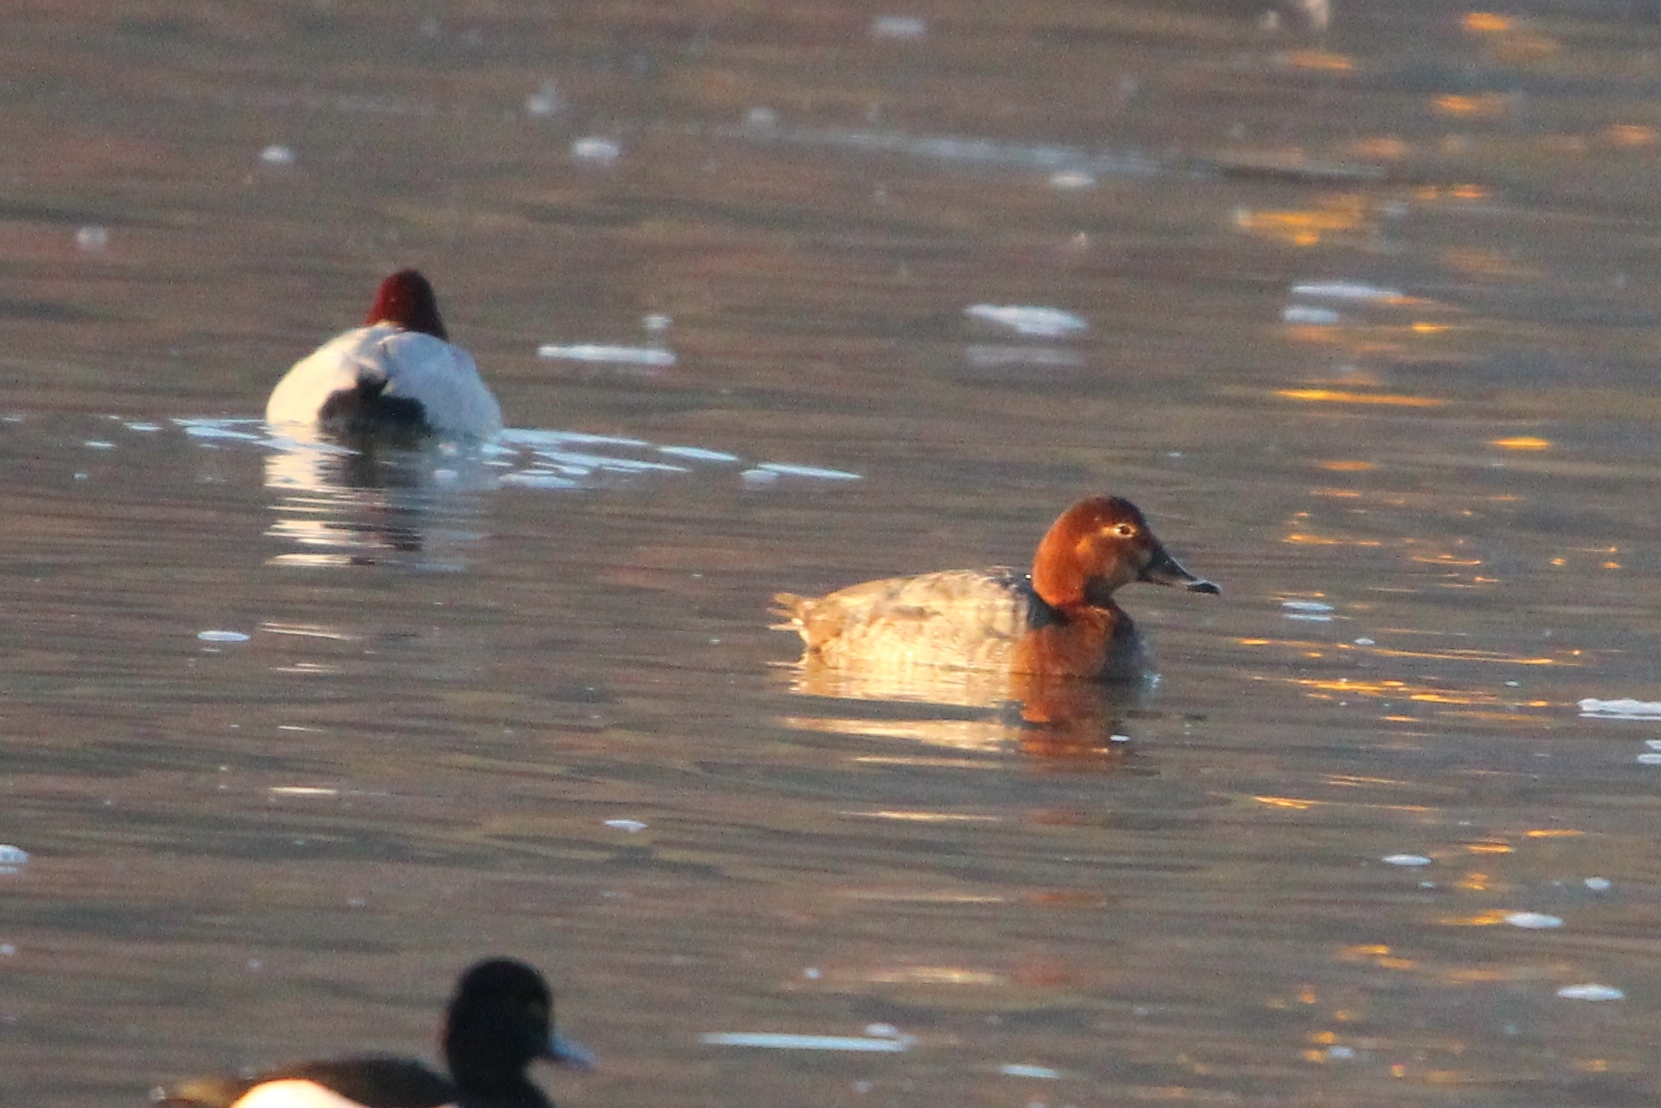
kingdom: Animalia
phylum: Chordata
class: Aves
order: Anseriformes
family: Anatidae
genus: Aythya
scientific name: Aythya ferina
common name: Common pochard
